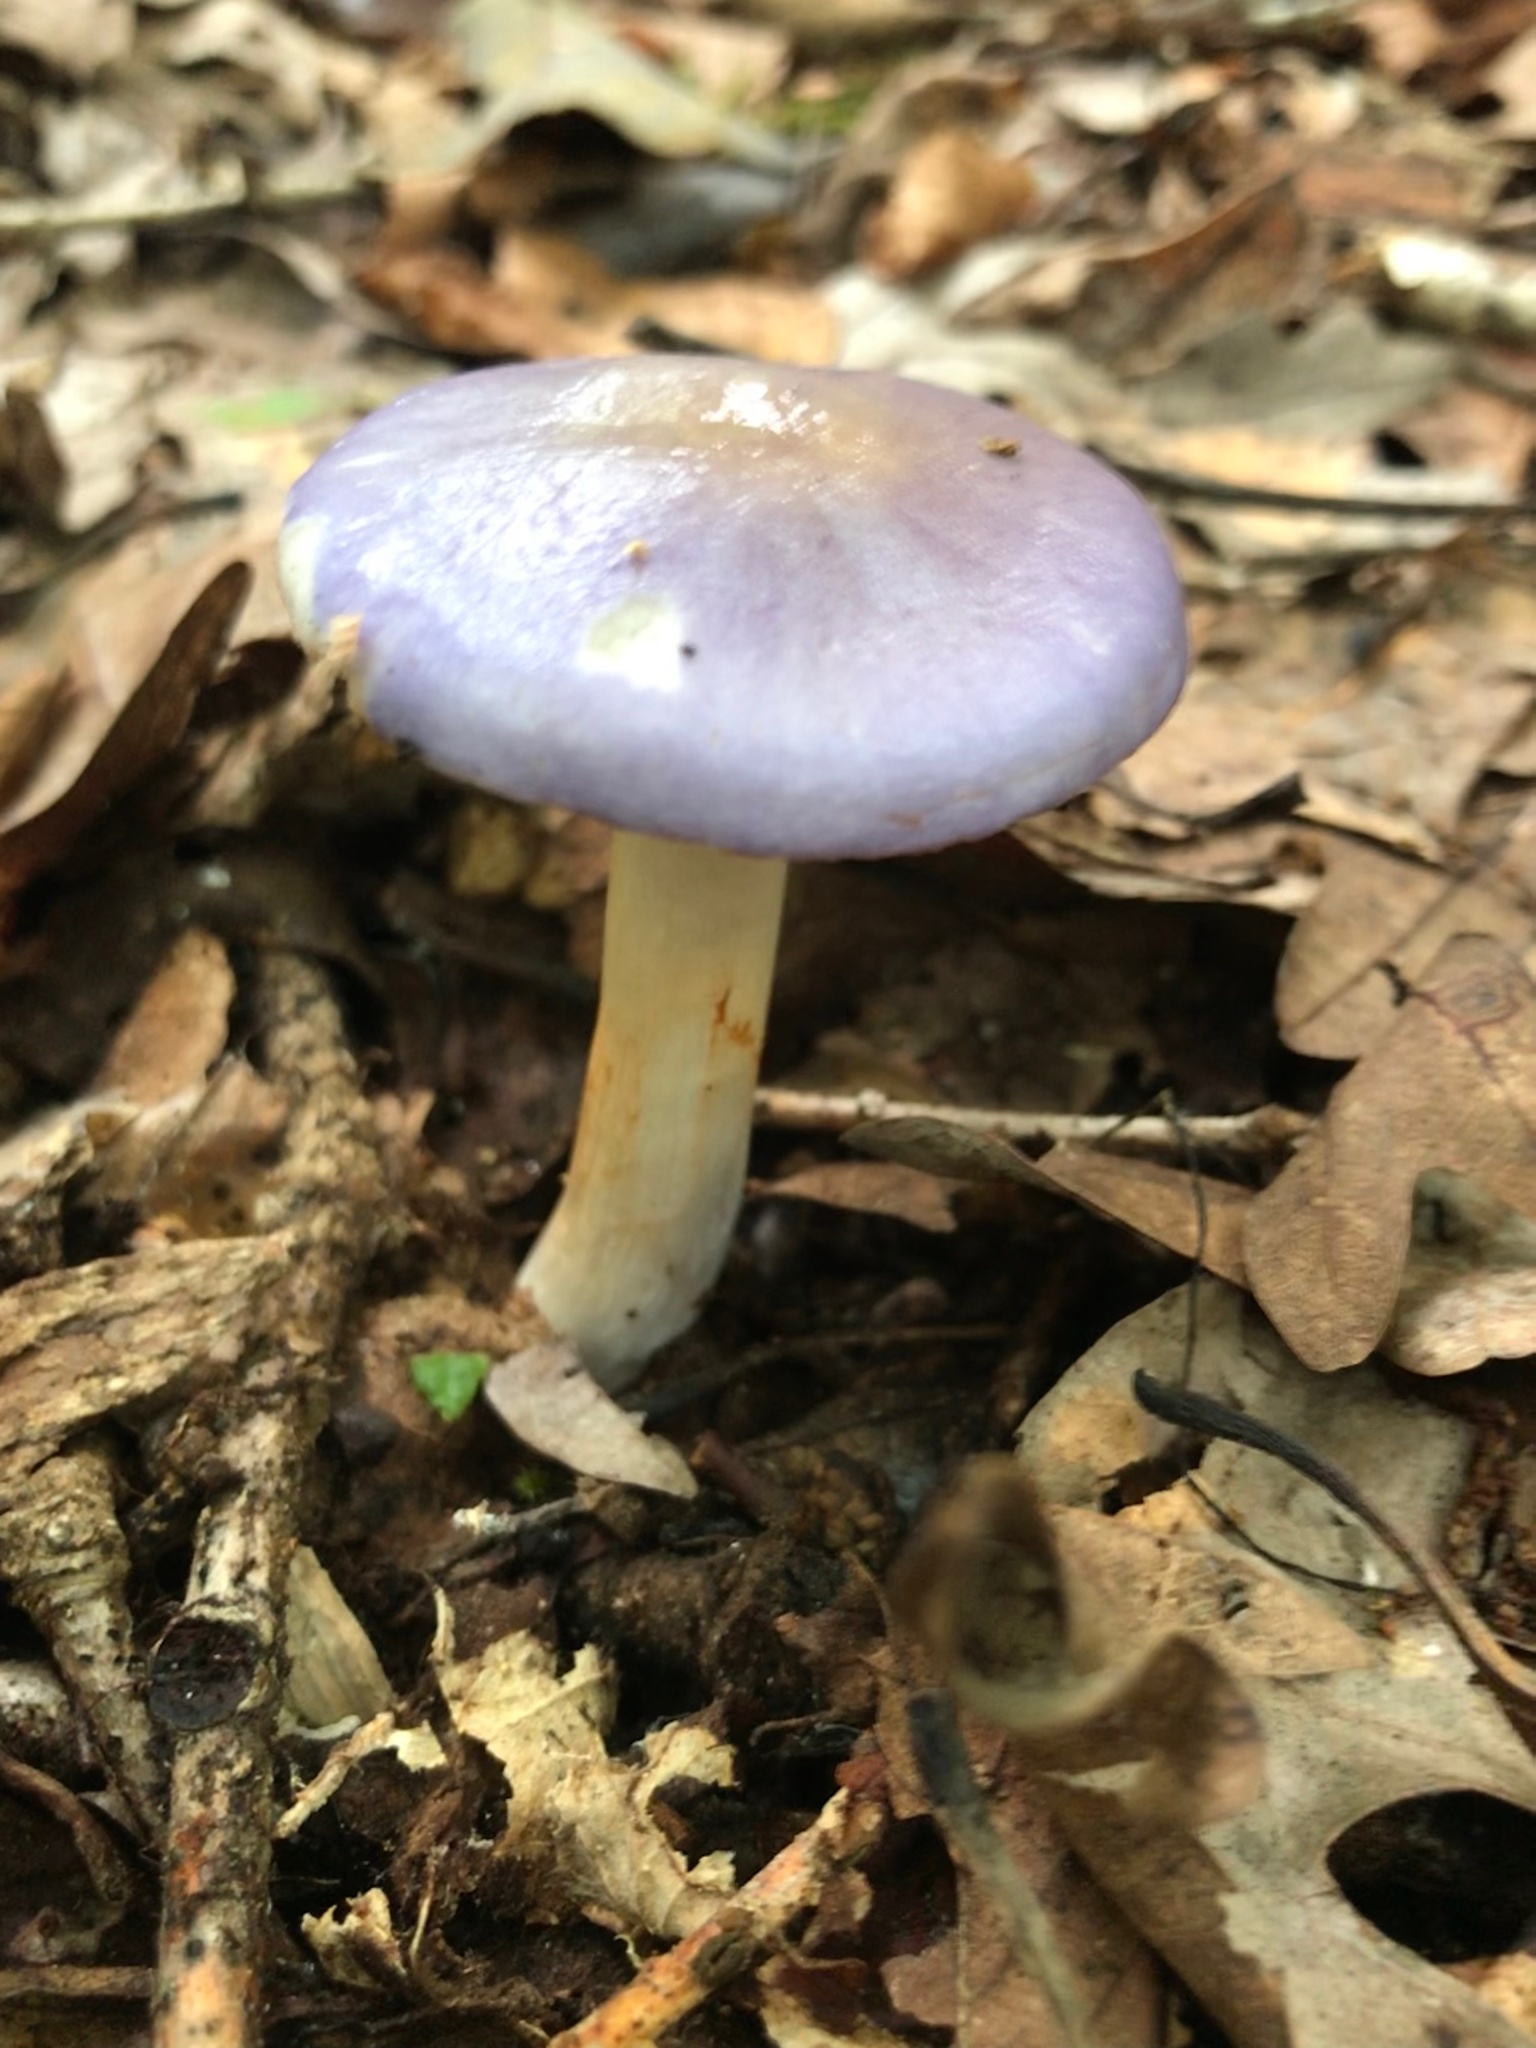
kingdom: Fungi
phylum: Basidiomycota
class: Agaricomycetes
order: Agaricales
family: Cortinariaceae
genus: Cortinarius
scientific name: Cortinarius iodes
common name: Viscid violet cort
